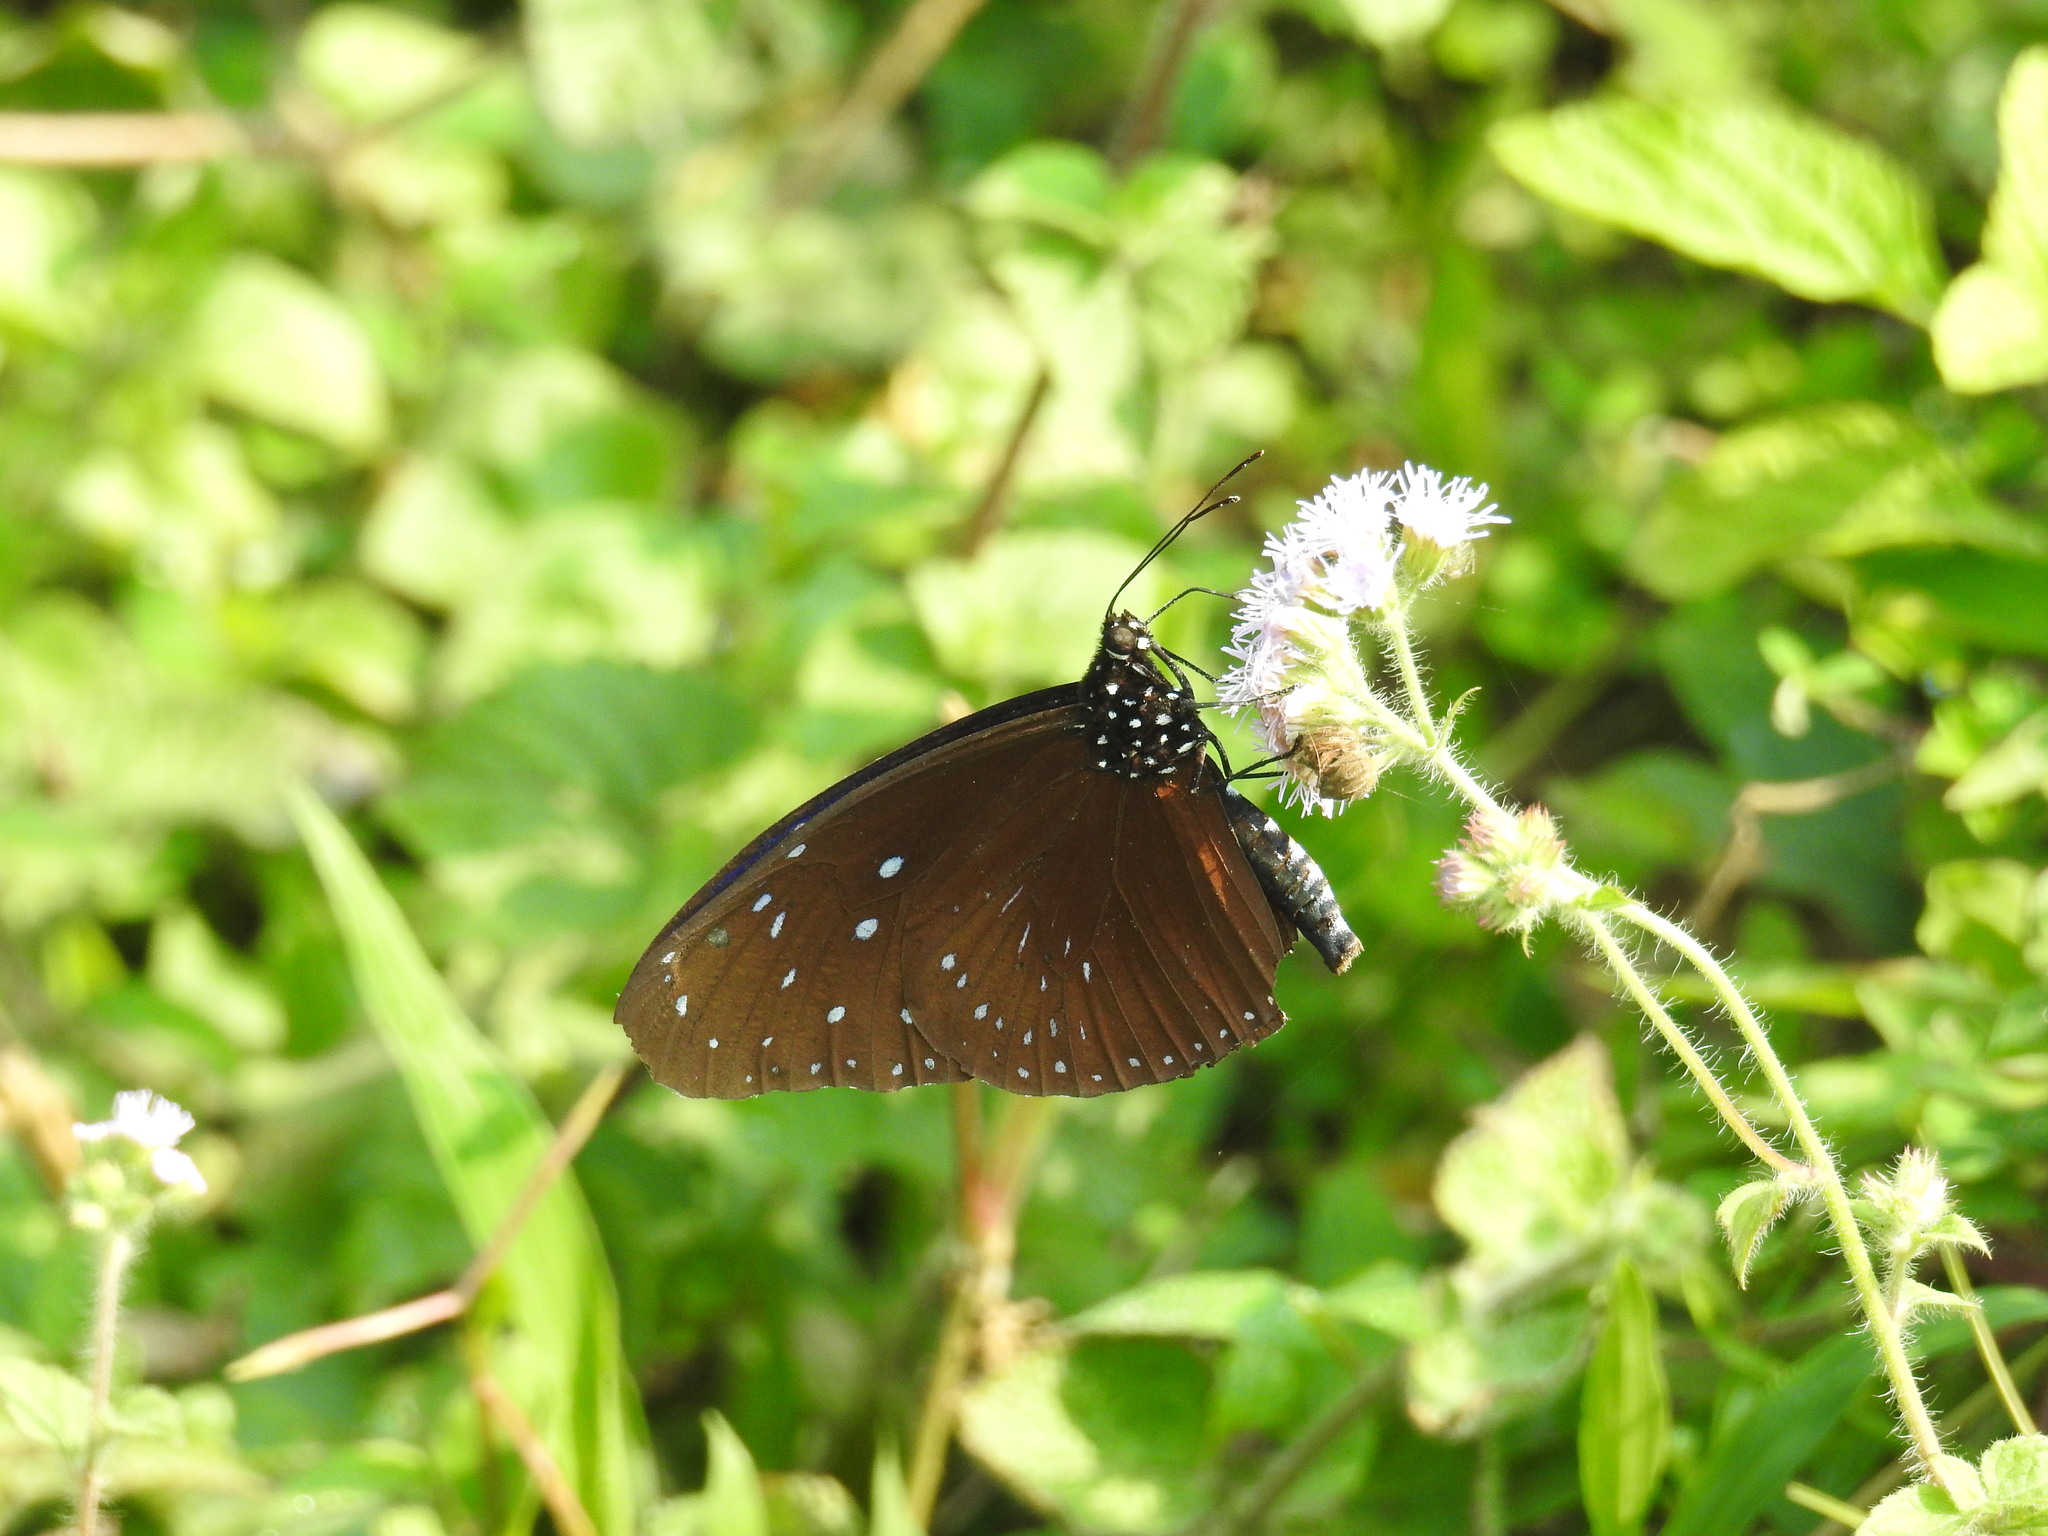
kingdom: Animalia
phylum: Arthropoda
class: Insecta
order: Lepidoptera
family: Nymphalidae
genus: Euploea
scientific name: Euploea mulciber
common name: Striped blue crow butterfly
